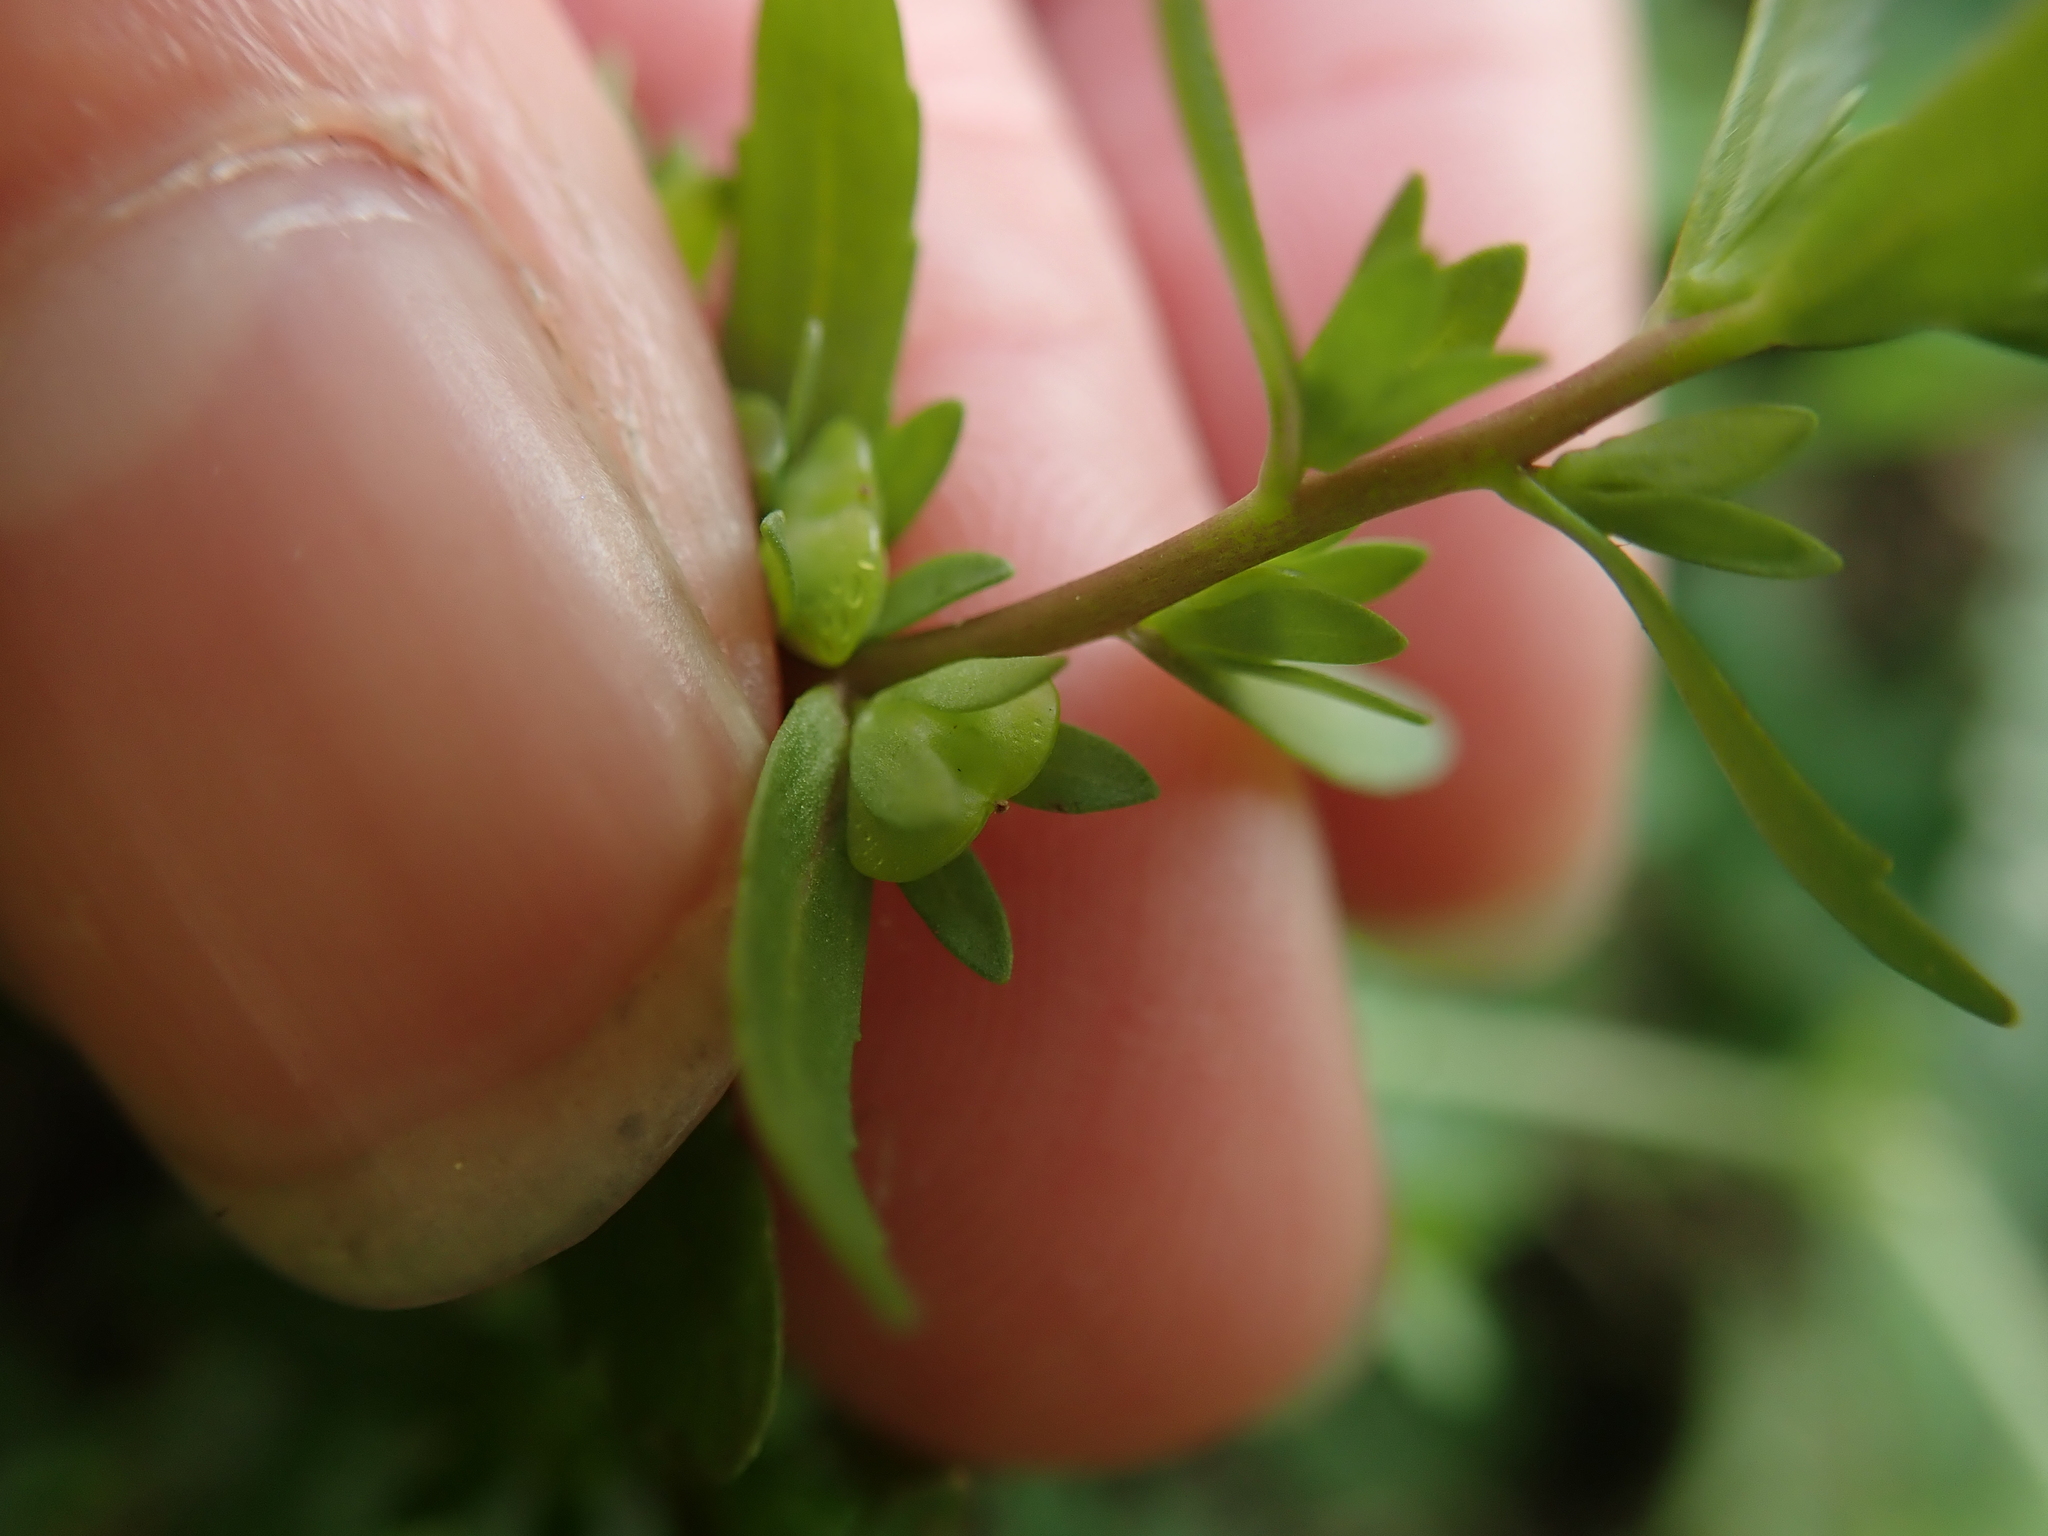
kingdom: Plantae
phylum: Tracheophyta
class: Magnoliopsida
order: Lamiales
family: Plantaginaceae
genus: Veronica
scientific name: Veronica peregrina
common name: Neckweed
